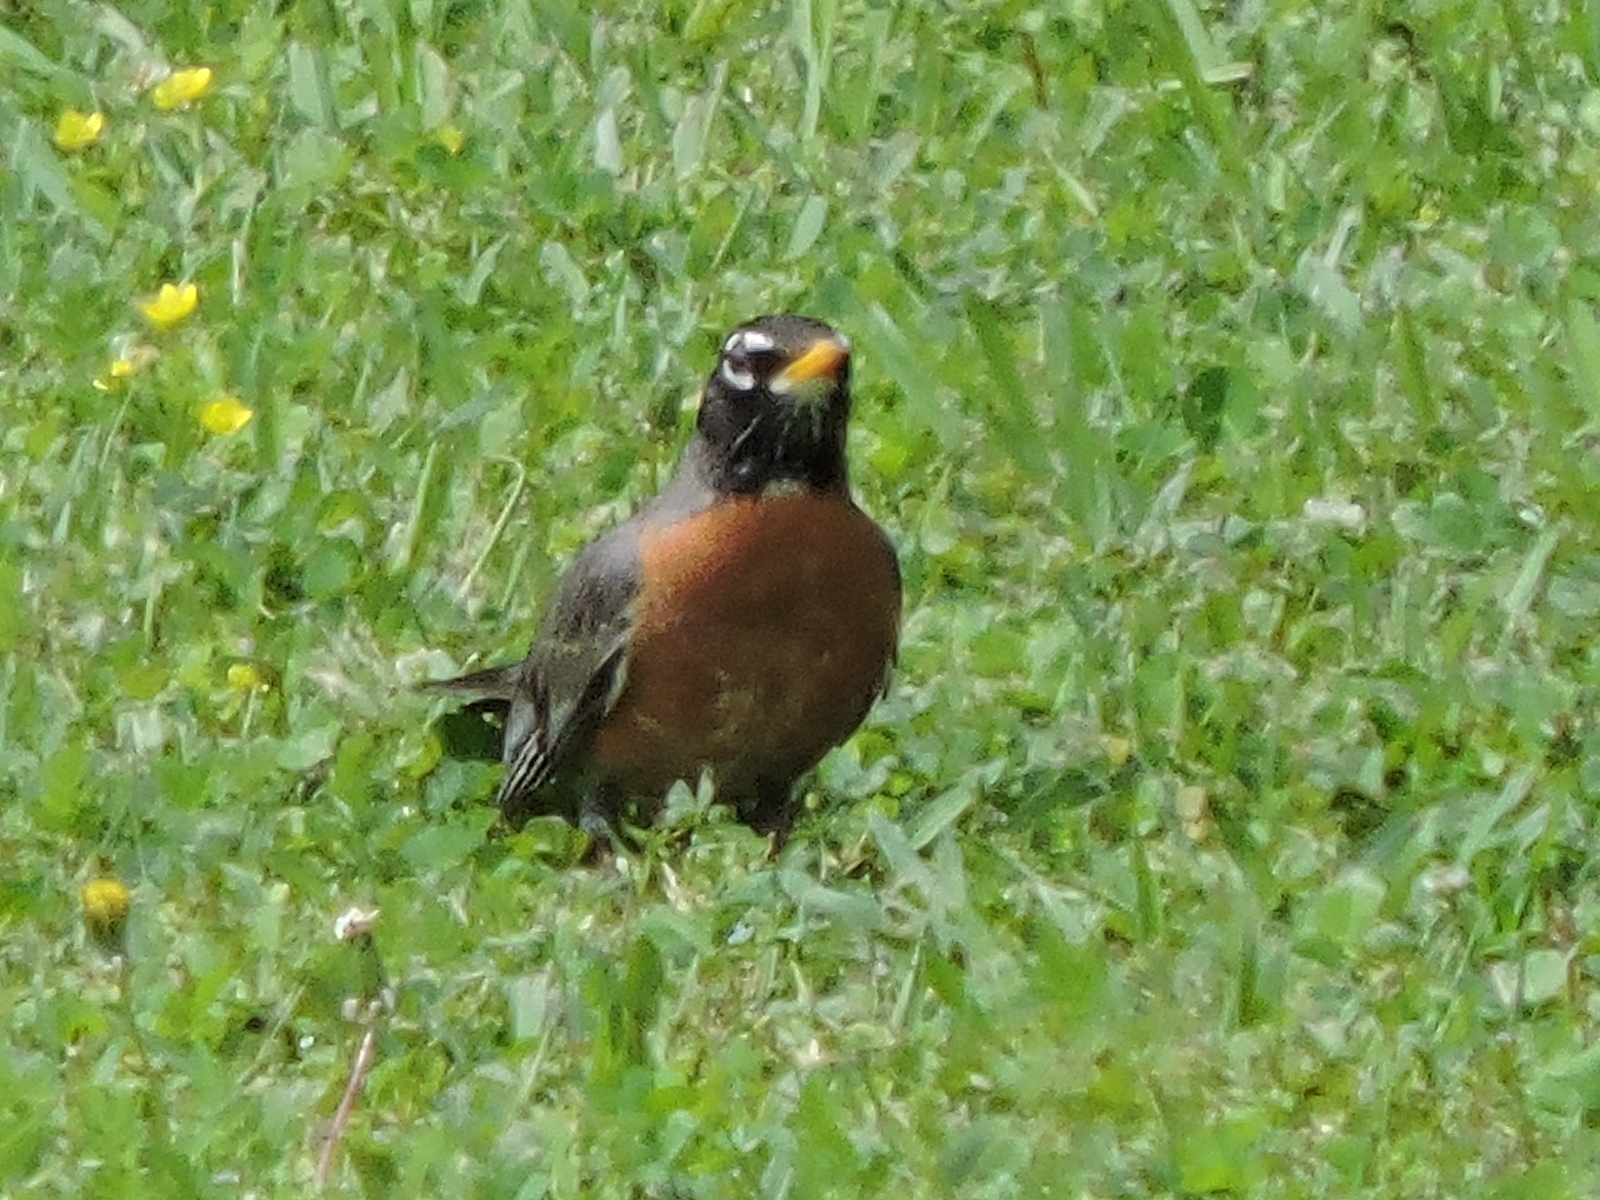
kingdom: Animalia
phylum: Chordata
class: Aves
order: Passeriformes
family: Turdidae
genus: Turdus
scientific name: Turdus migratorius
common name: American robin
